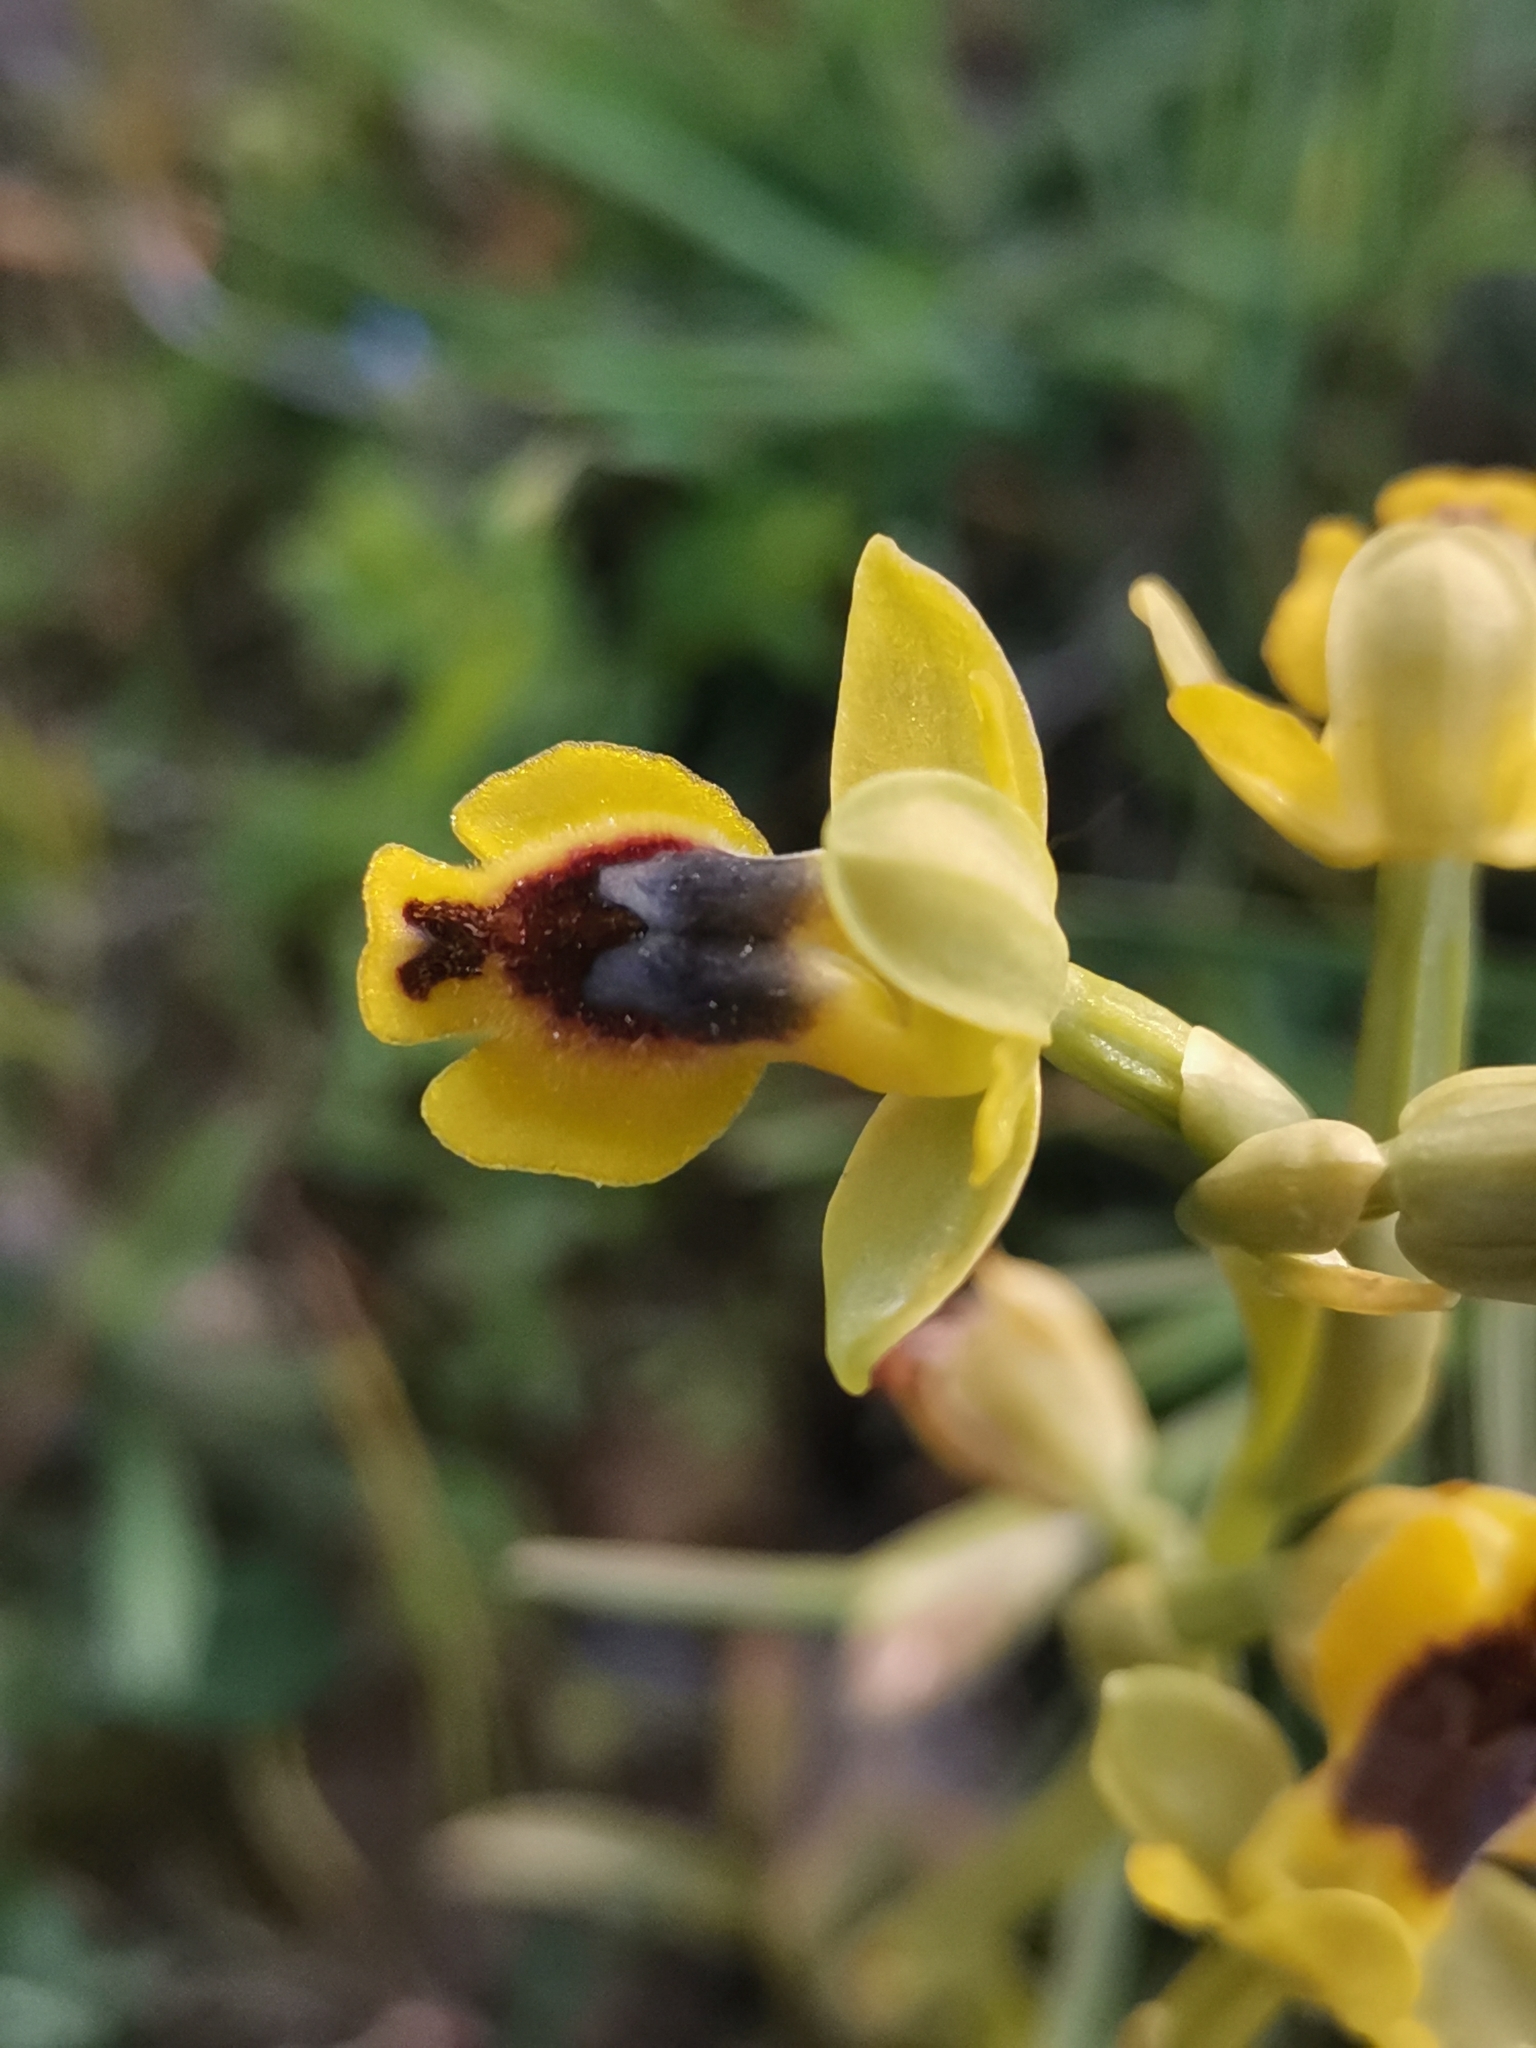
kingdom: Plantae
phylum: Tracheophyta
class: Liliopsida
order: Asparagales
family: Orchidaceae
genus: Ophrys
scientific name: Ophrys lutea
